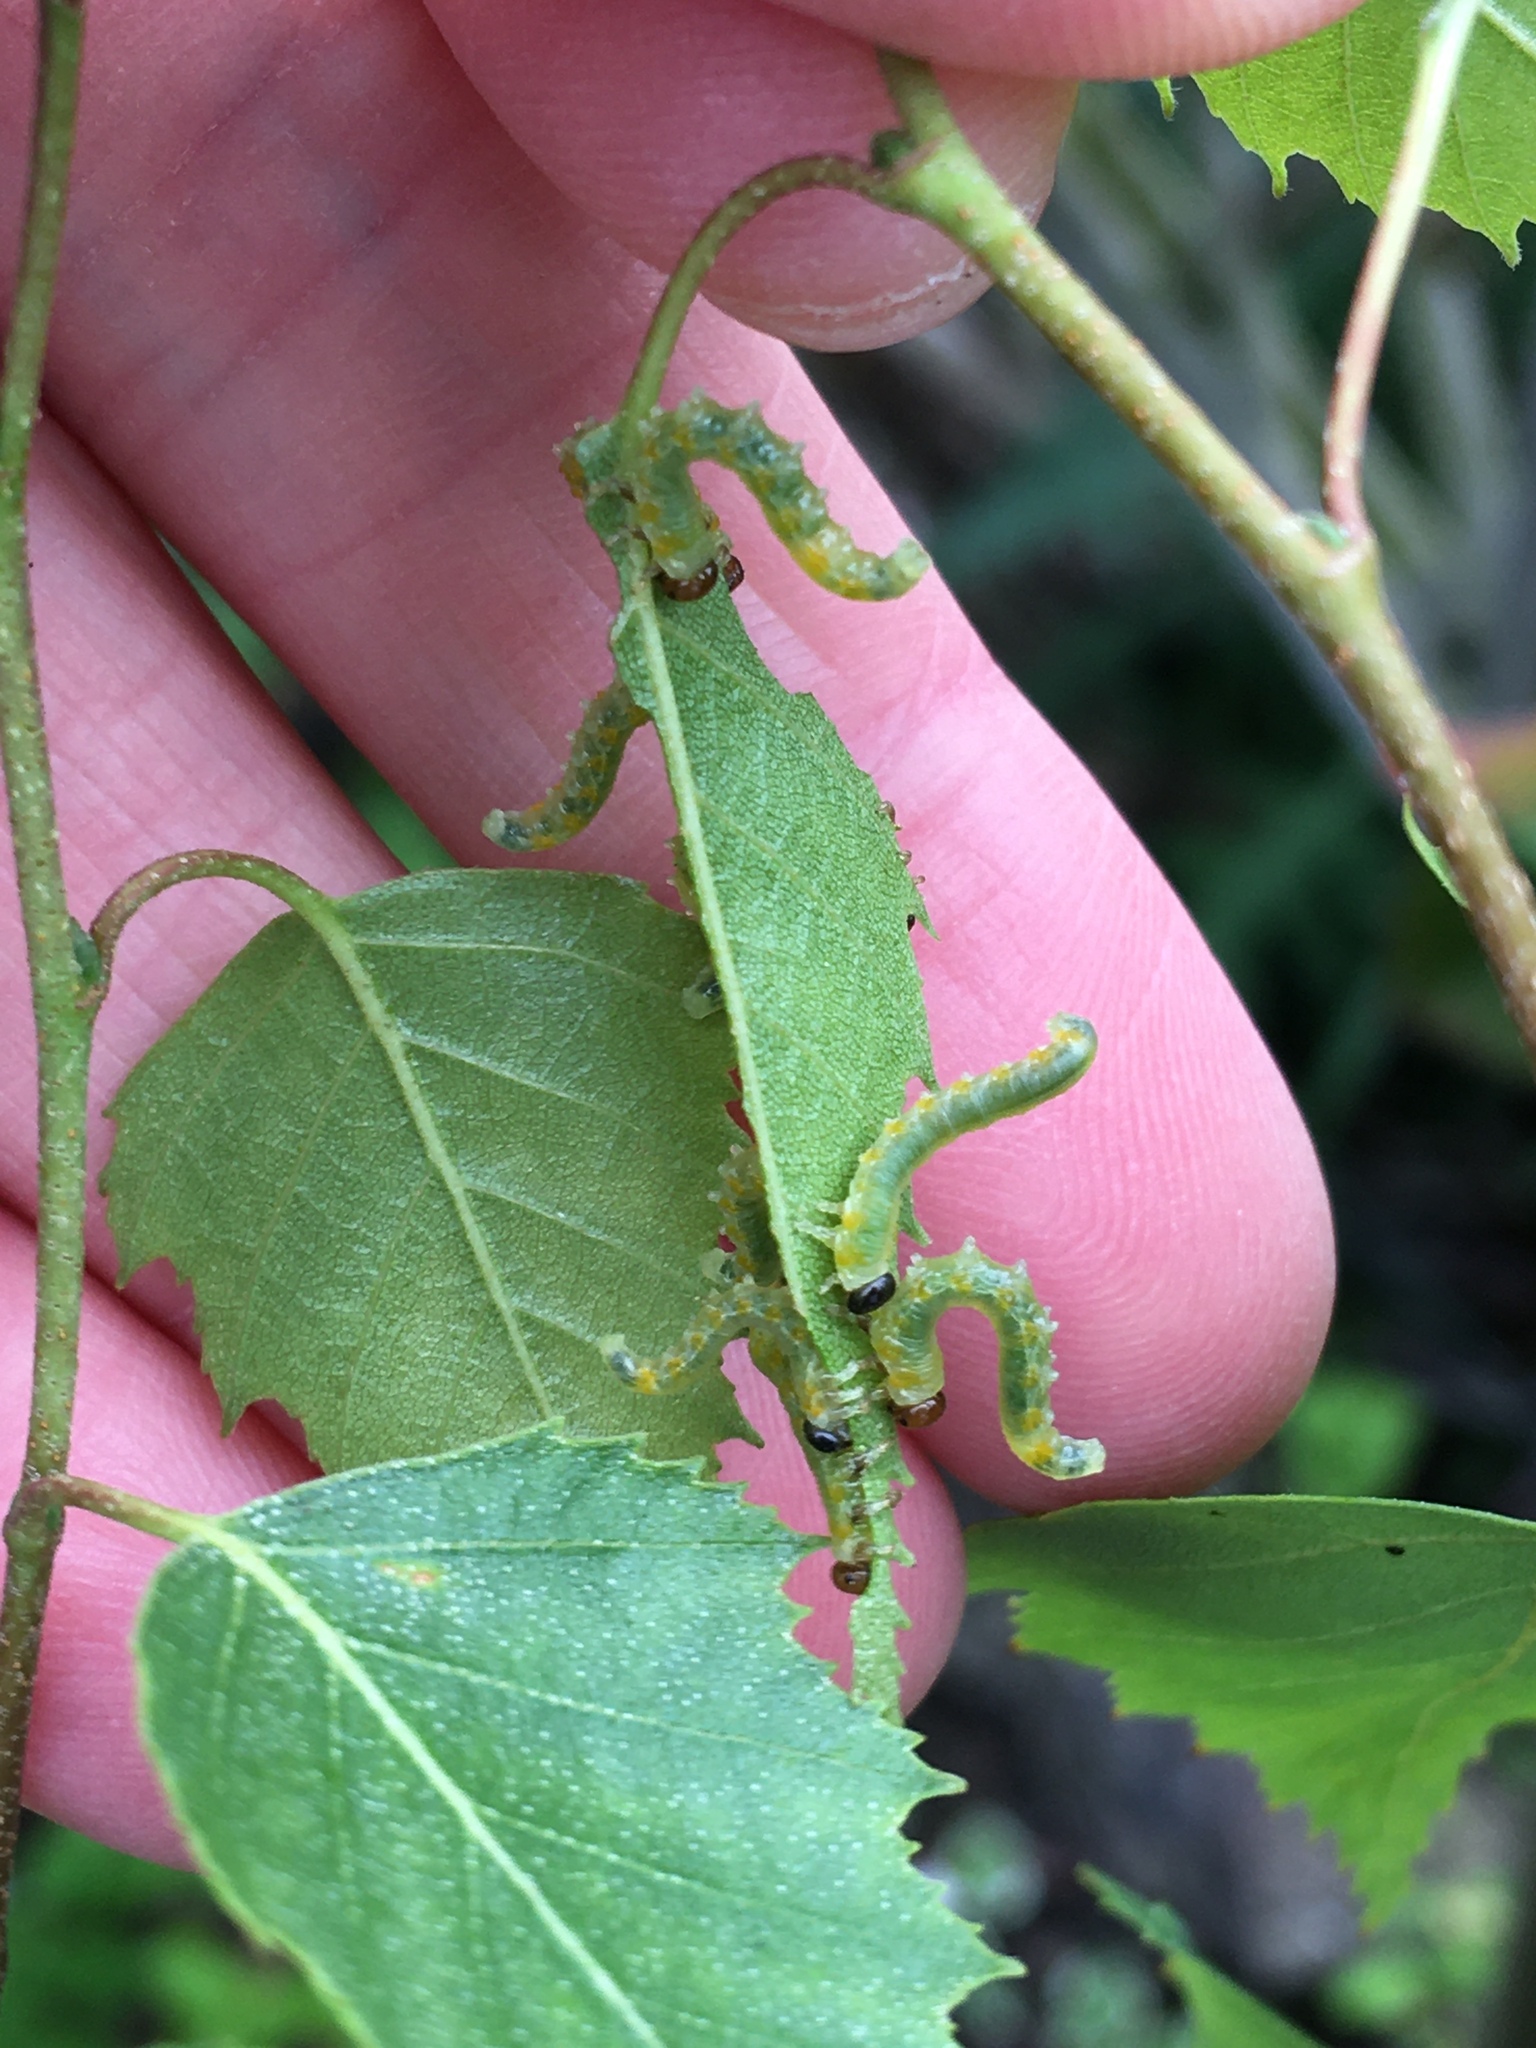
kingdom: Animalia
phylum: Arthropoda
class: Insecta
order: Hymenoptera
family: Tenthredinidae
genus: Pristiphora
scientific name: Pristiphora testacea
